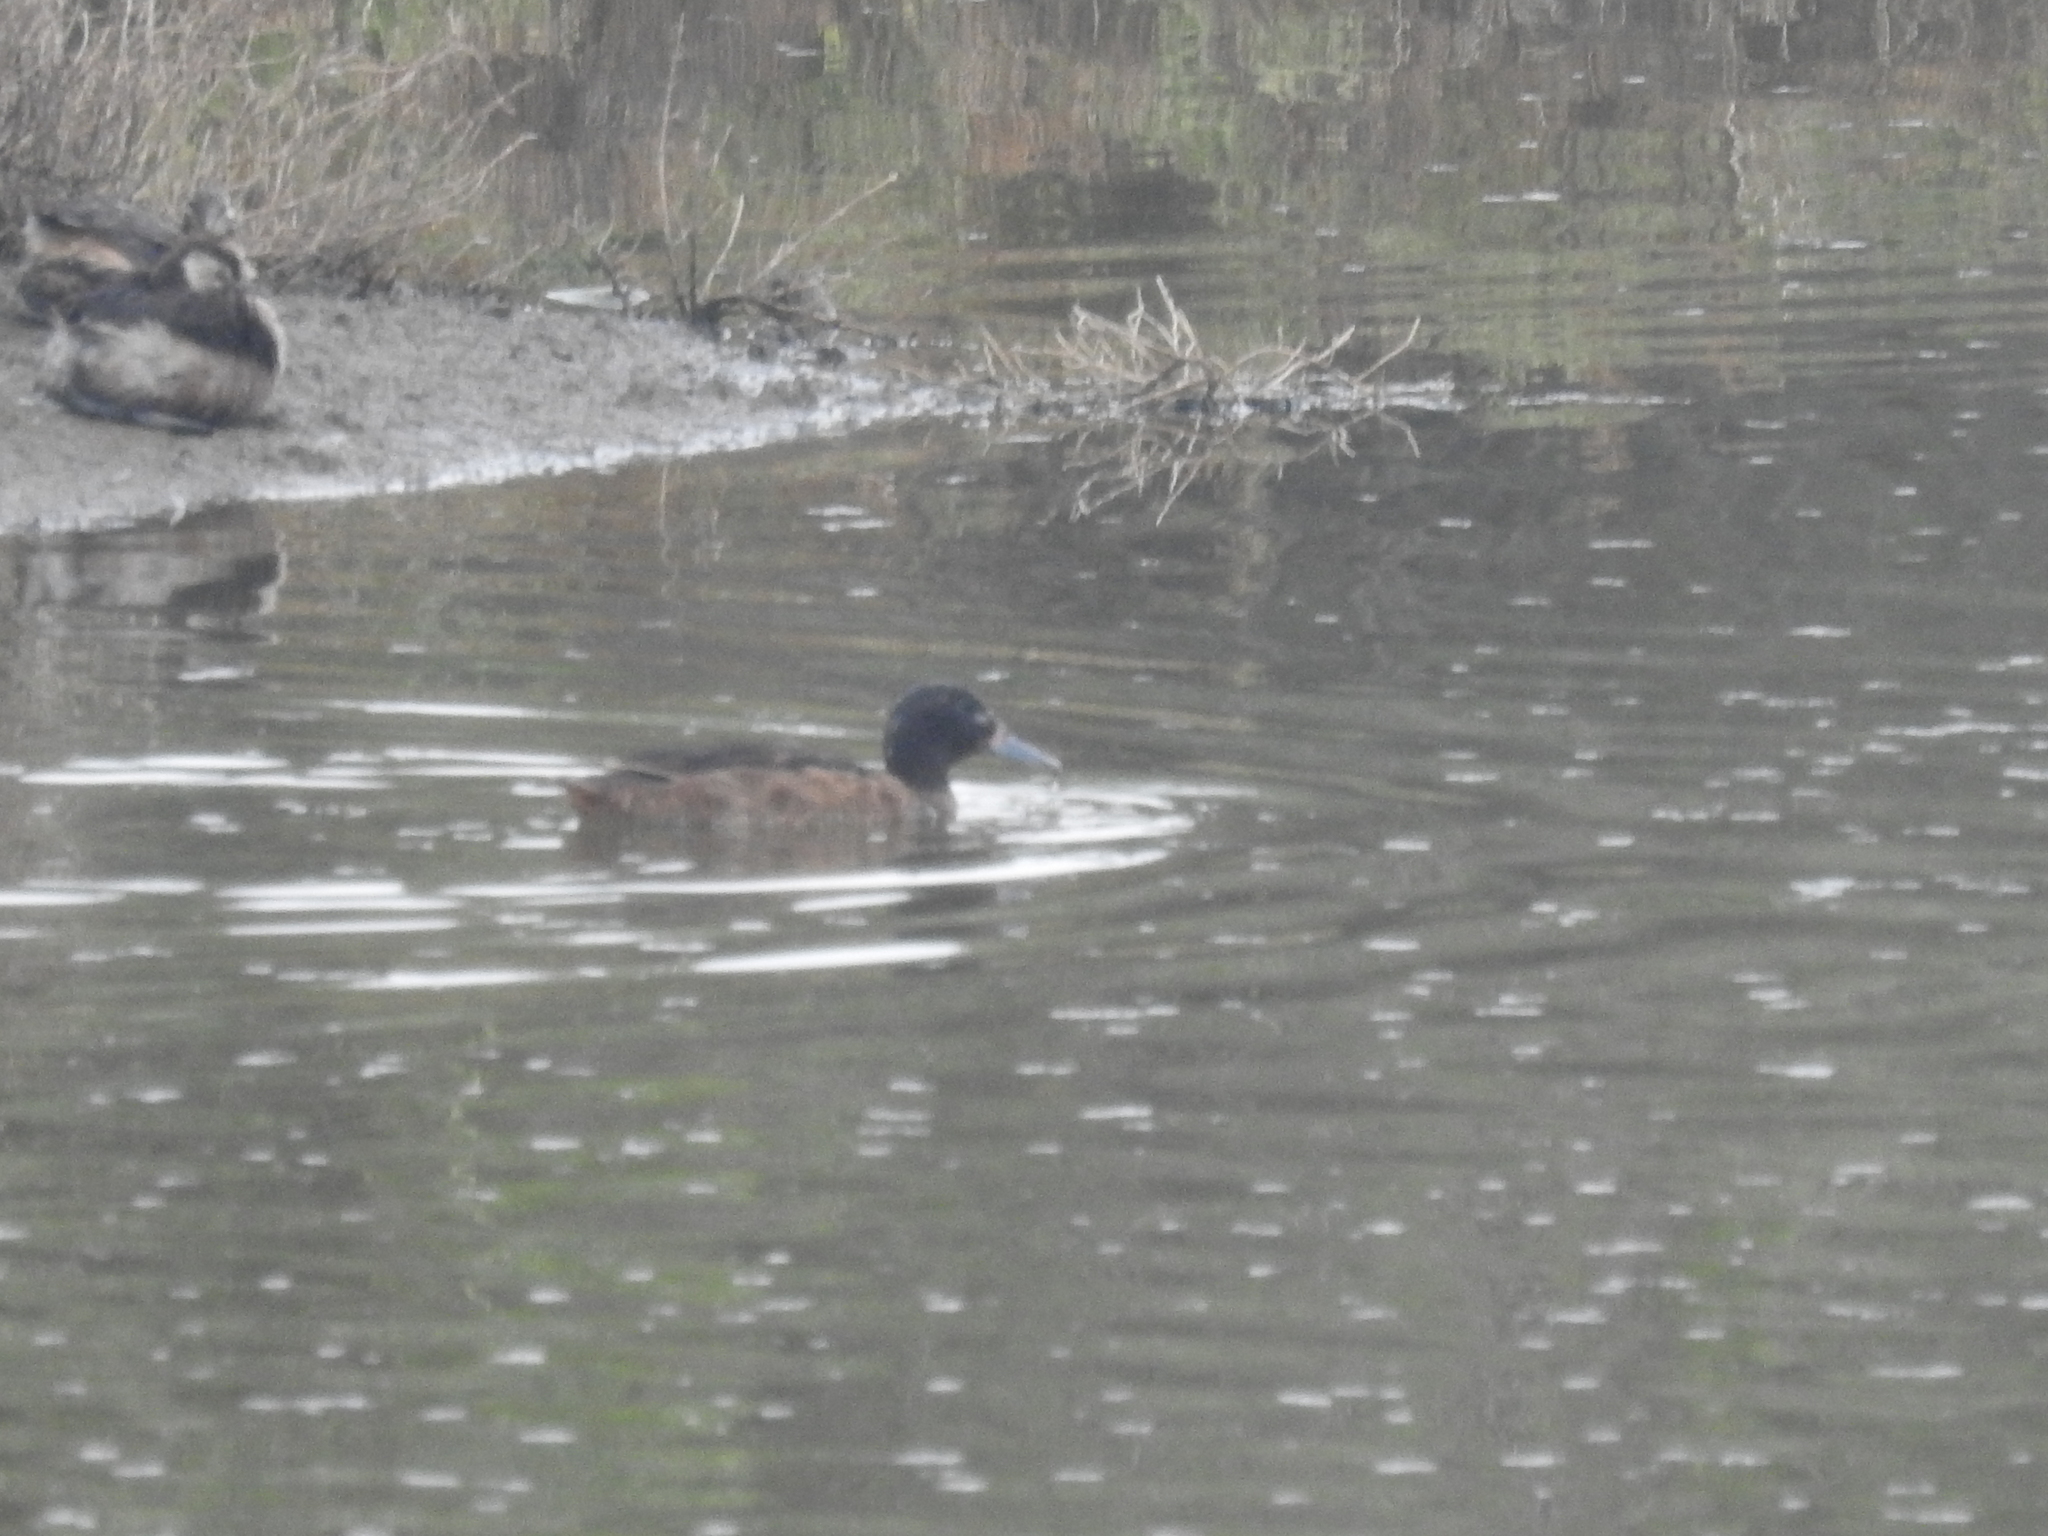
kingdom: Animalia
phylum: Chordata
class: Aves
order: Anseriformes
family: Anatidae
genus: Heteronetta
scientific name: Heteronetta atricapilla
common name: Black-headed duck
